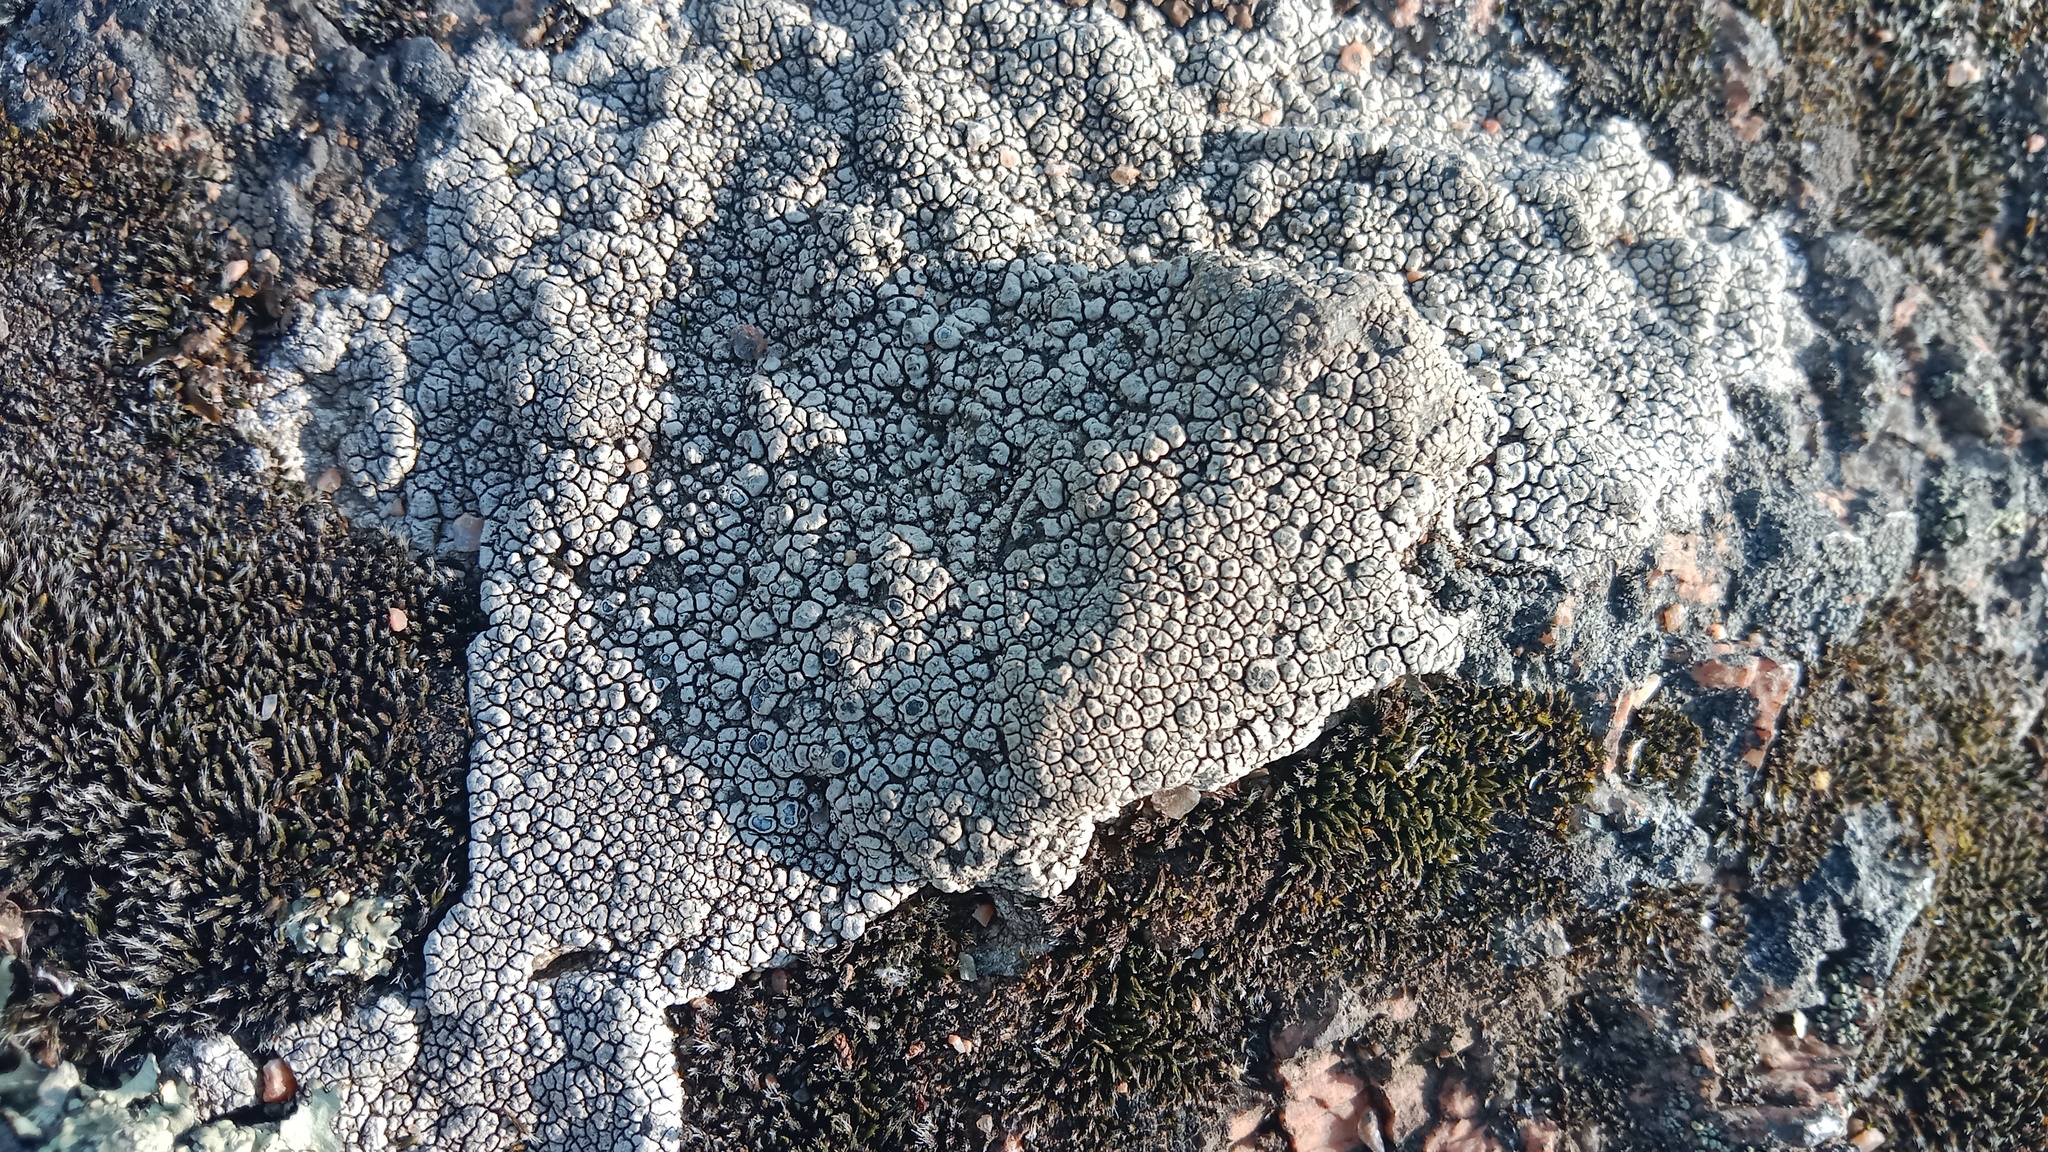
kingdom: Fungi
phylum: Ascomycota
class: Lecanoromycetes
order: Pertusariales
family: Megasporaceae
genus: Aspiciliella
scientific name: Aspiciliella intermutans
